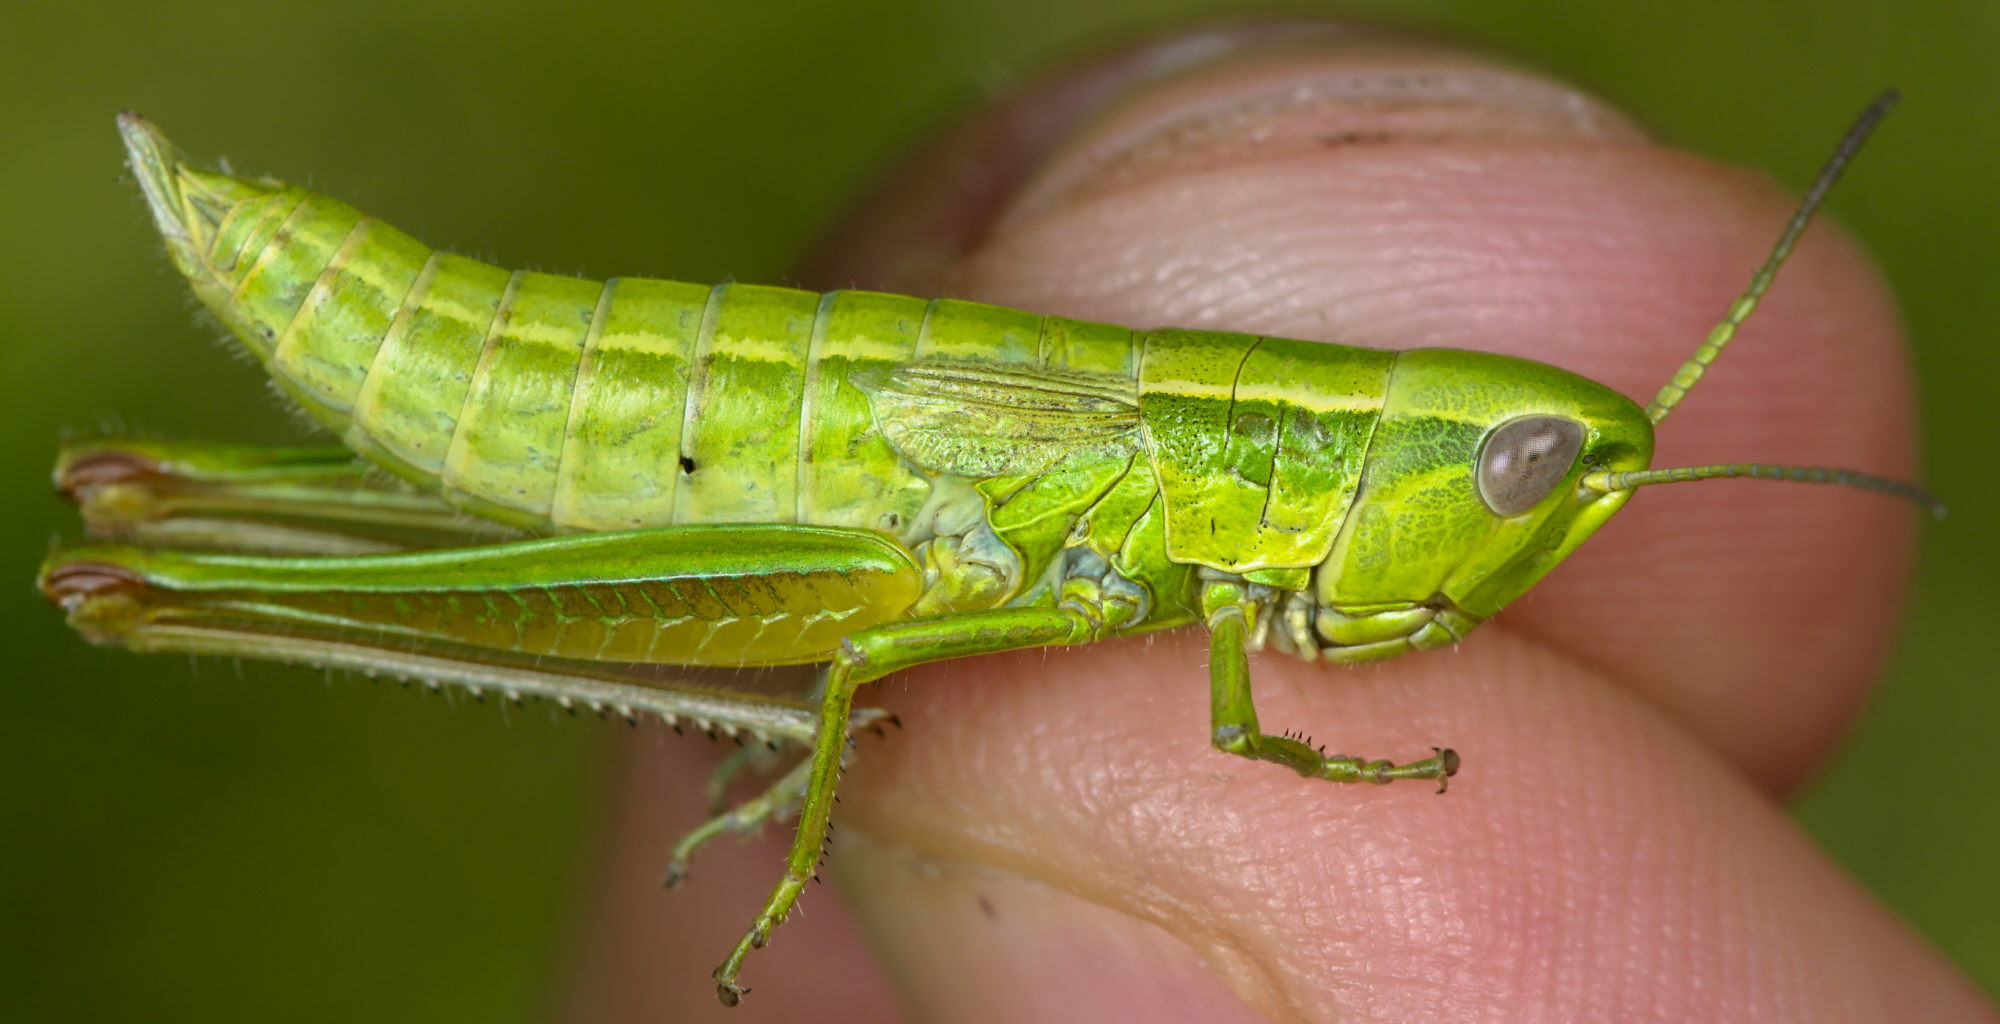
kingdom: Animalia
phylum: Arthropoda
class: Insecta
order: Orthoptera
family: Acrididae
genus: Euthystira
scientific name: Euthystira brachyptera
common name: Small gold grasshopper
